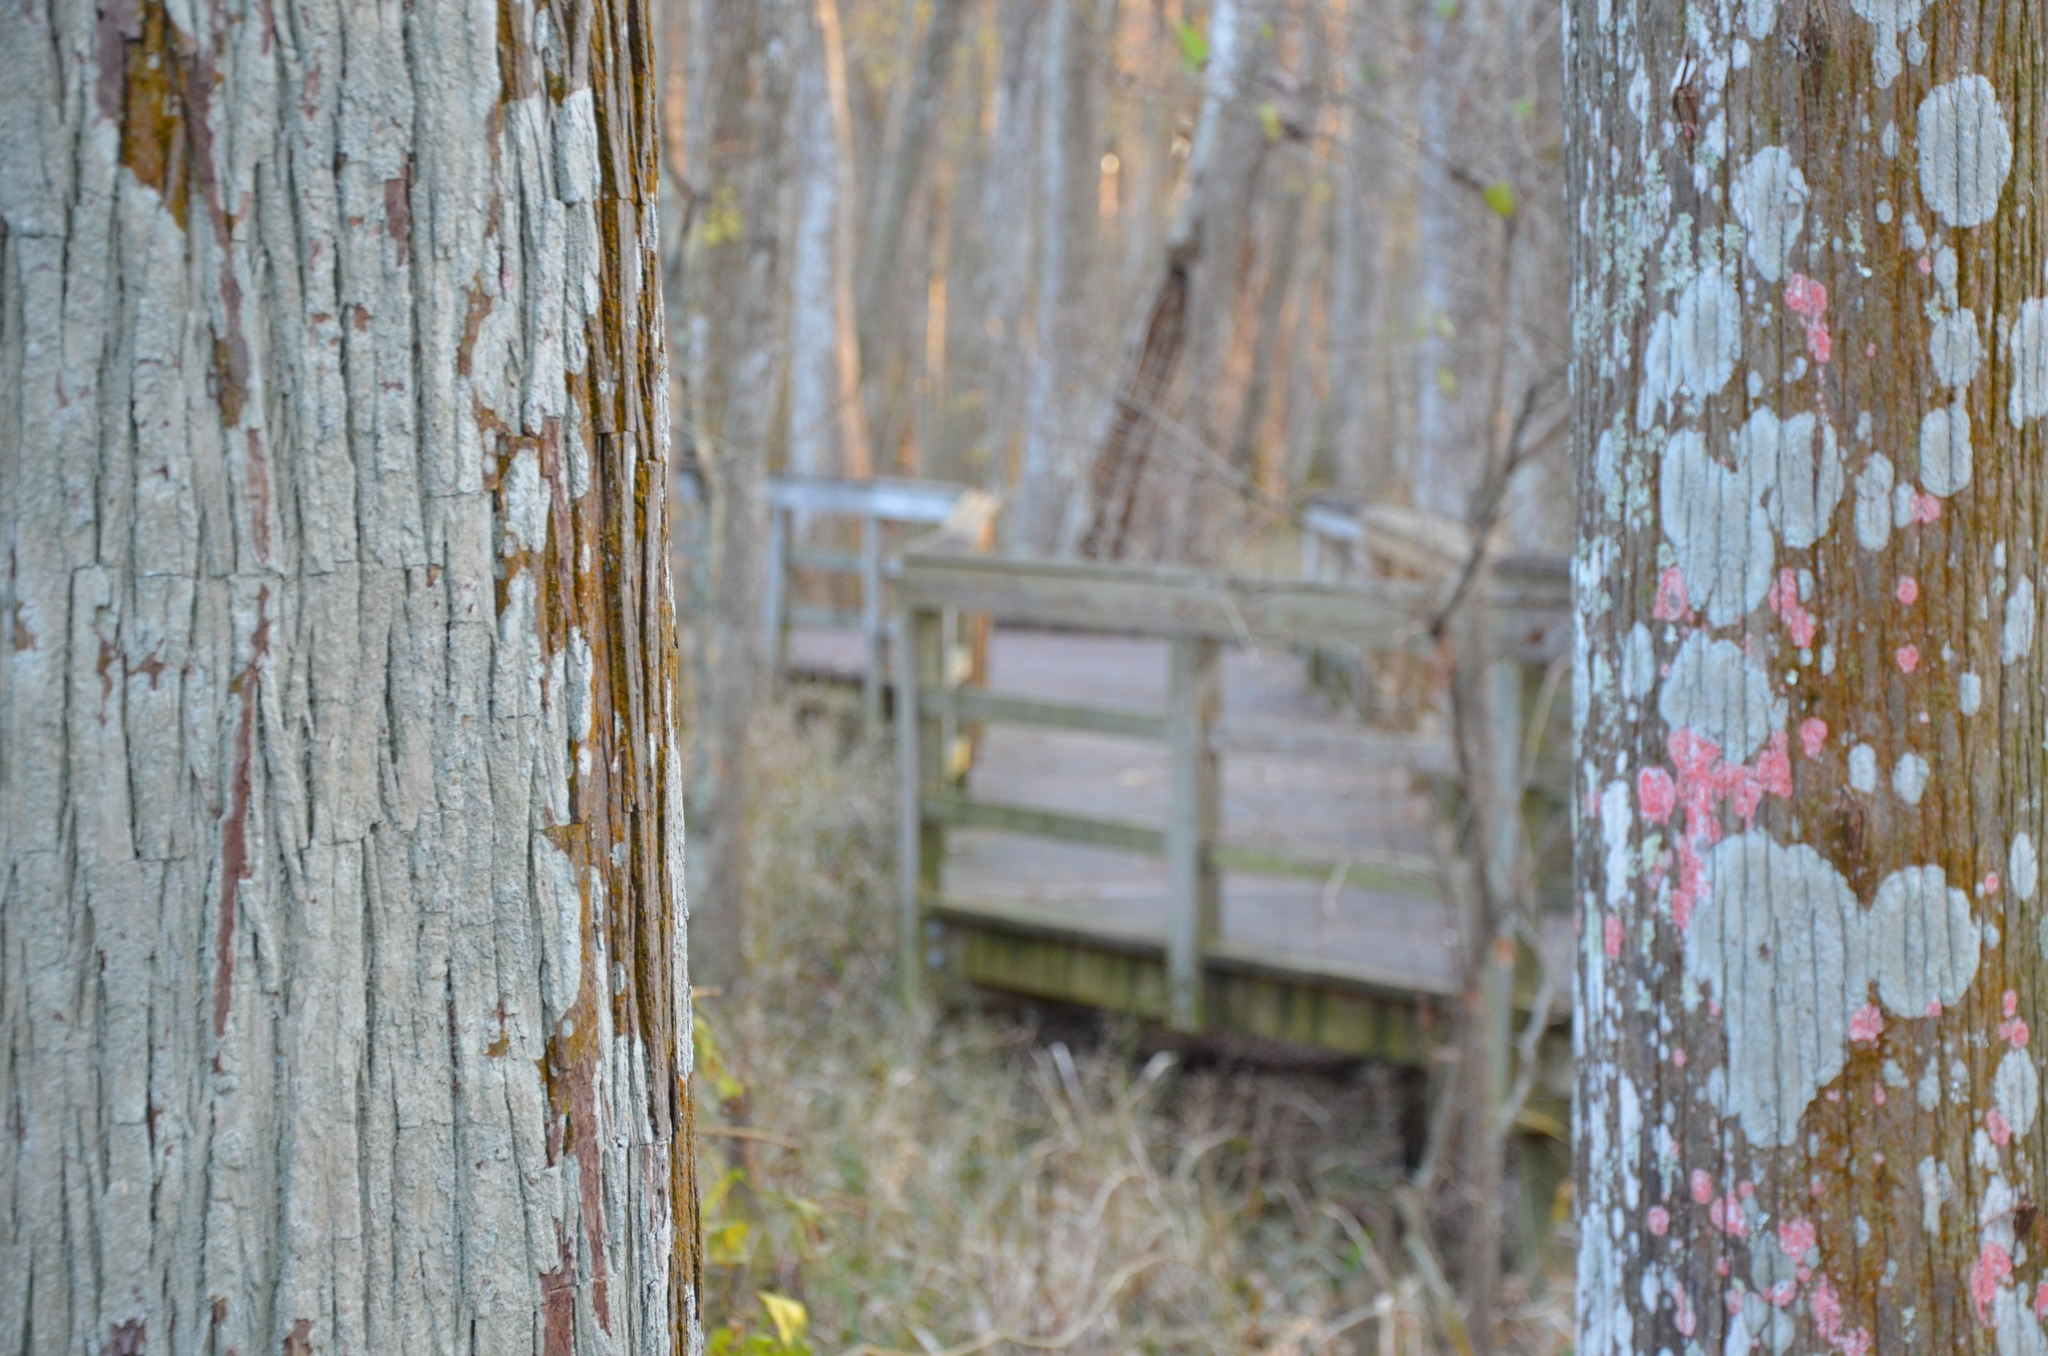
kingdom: Fungi
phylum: Ascomycota
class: Arthoniomycetes
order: Arthoniales
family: Arthoniaceae
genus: Herpothallon
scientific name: Herpothallon rubrocinctum
